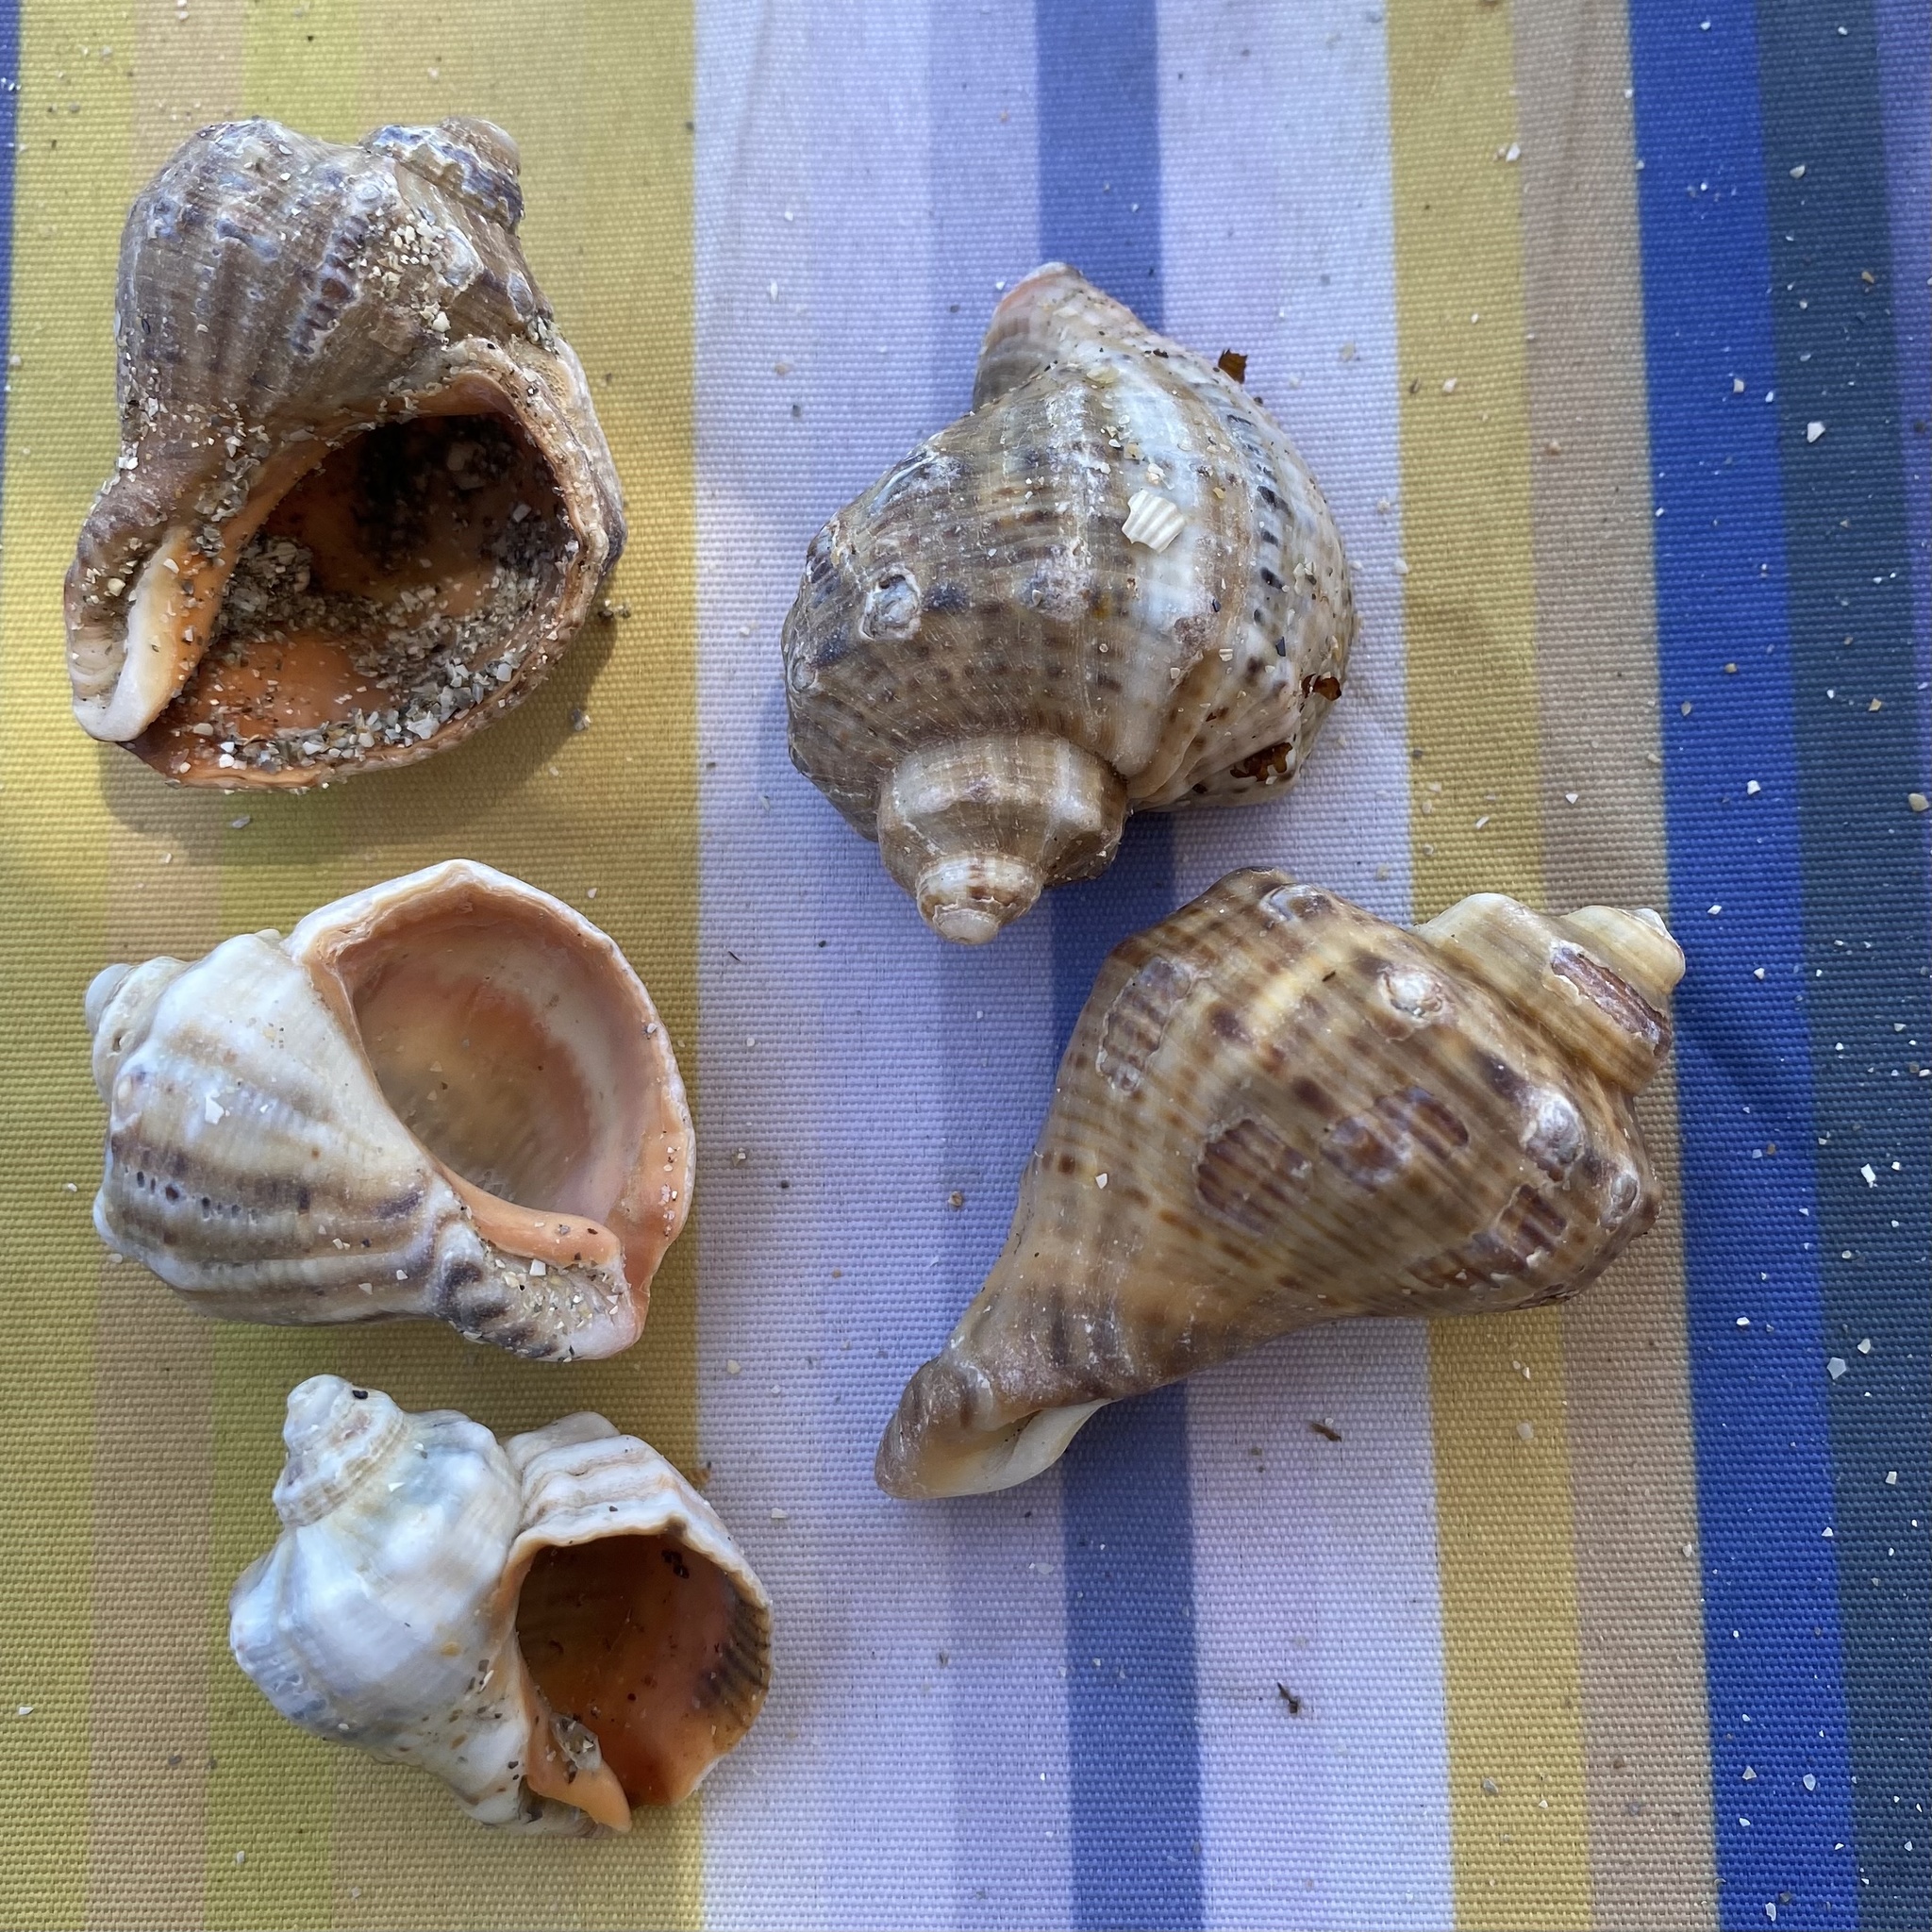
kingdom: Animalia
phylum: Mollusca
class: Gastropoda
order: Neogastropoda
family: Muricidae
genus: Rapana
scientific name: Rapana venosa
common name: Veined rapa whelk
